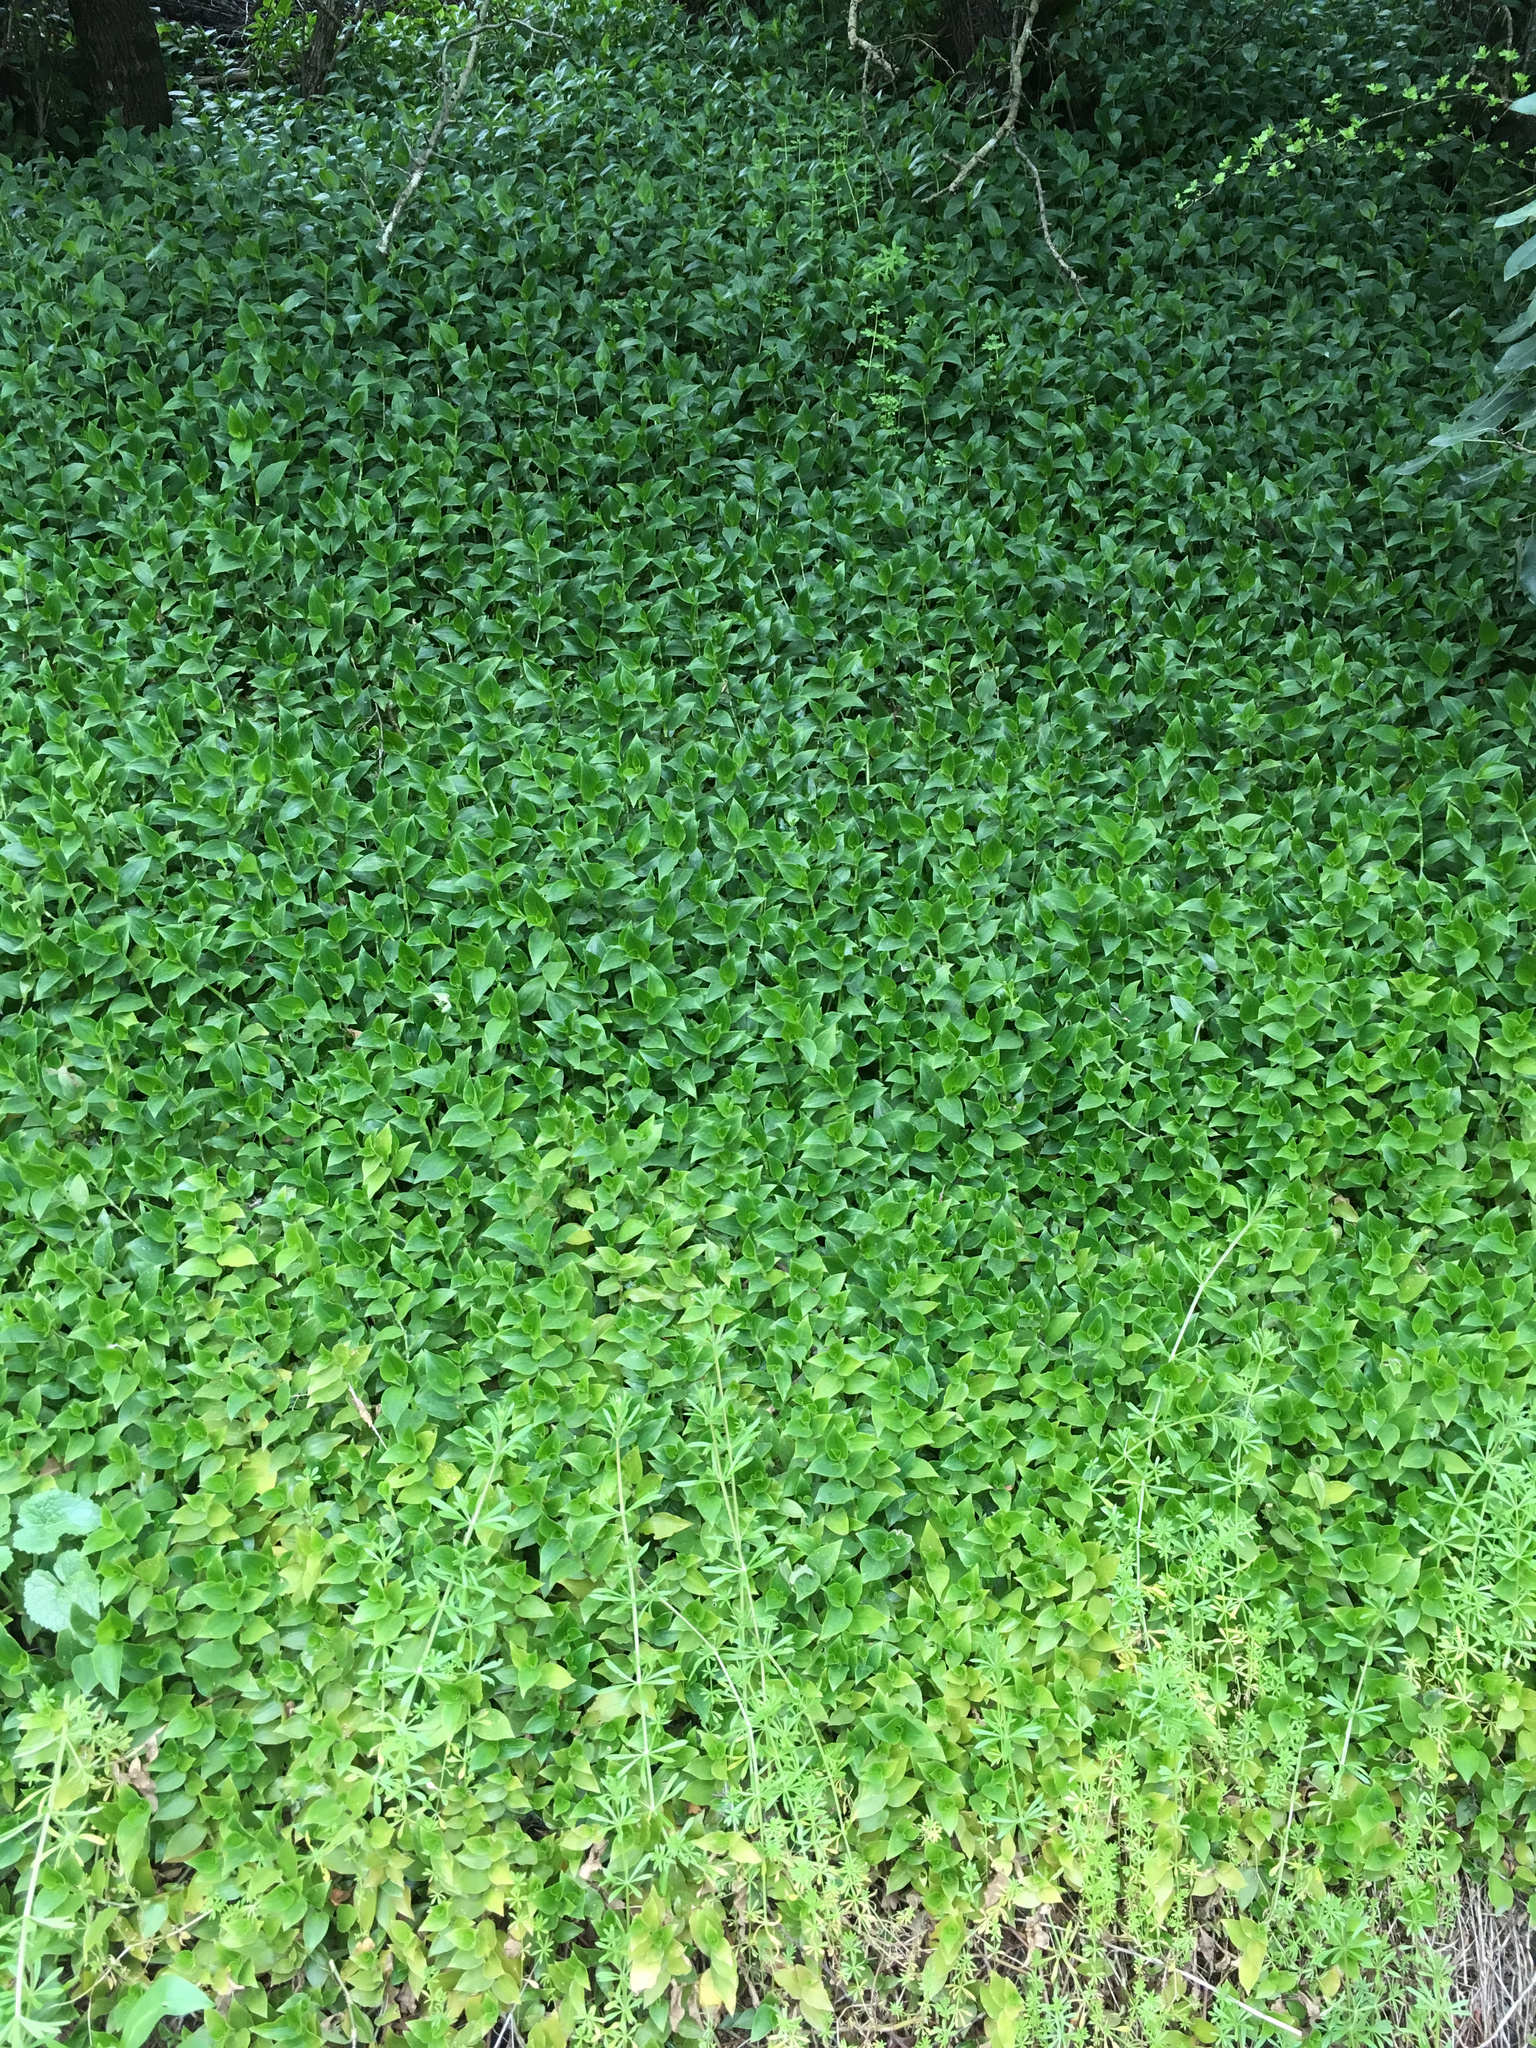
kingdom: Plantae
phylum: Tracheophyta
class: Magnoliopsida
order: Gentianales
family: Apocynaceae
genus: Vinca
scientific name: Vinca major
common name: Greater periwinkle
